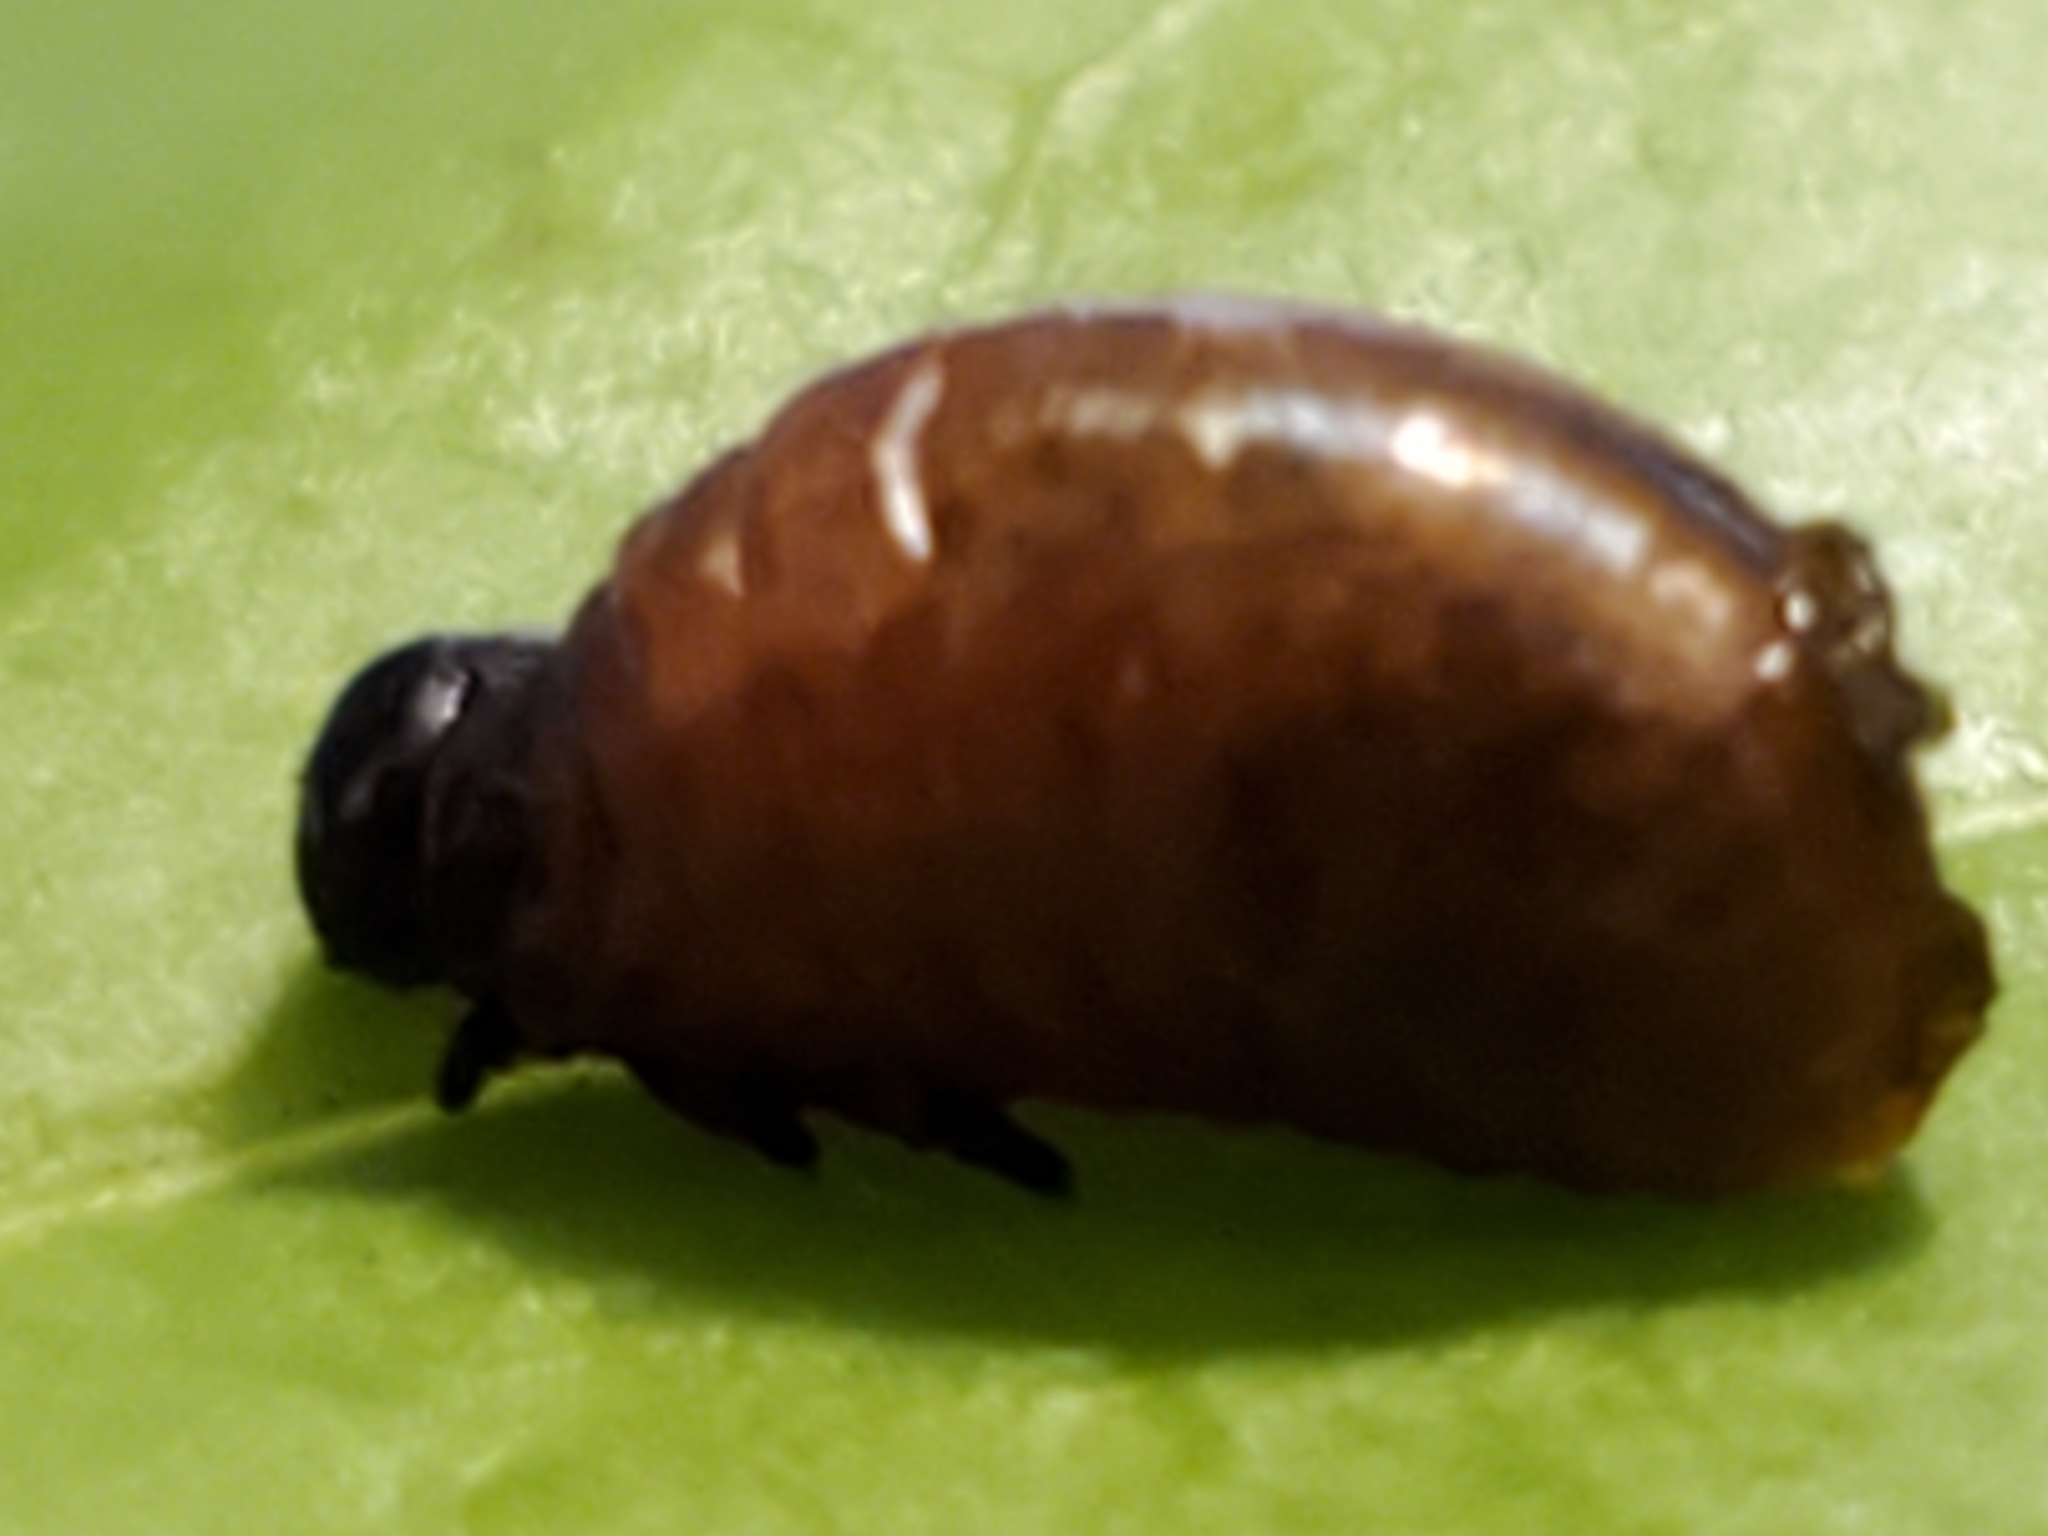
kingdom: Animalia
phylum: Arthropoda
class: Insecta
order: Coleoptera
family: Chrysomelidae
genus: Lilioceris
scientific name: Lilioceris lilii
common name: Lily beetle
